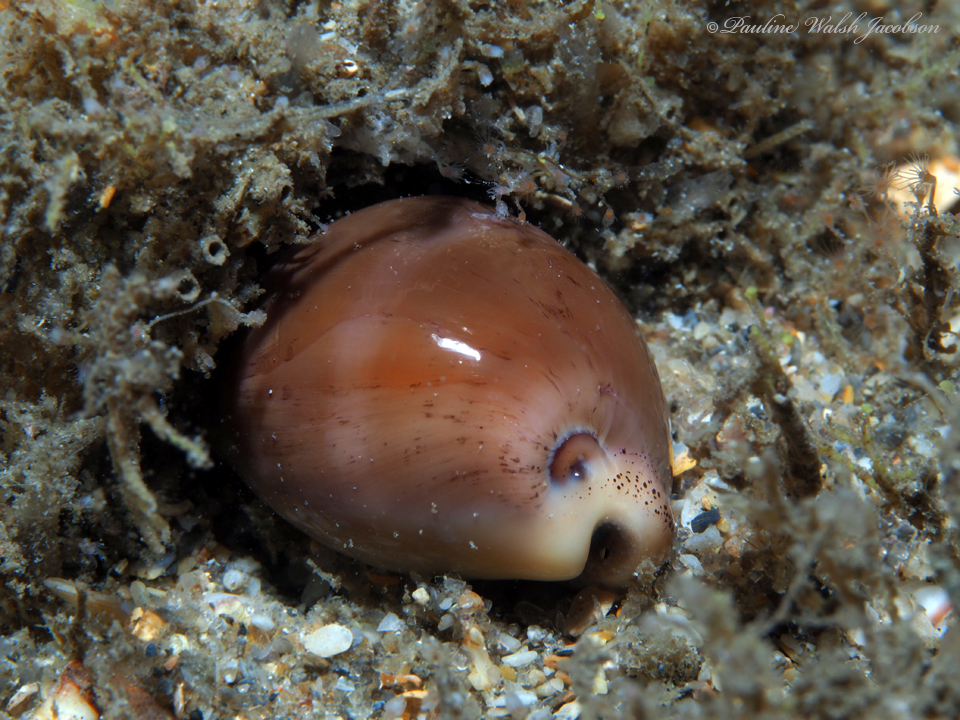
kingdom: Animalia
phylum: Mollusca
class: Gastropoda
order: Littorinimorpha
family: Cypraeidae
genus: Luria
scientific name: Luria cinerea
